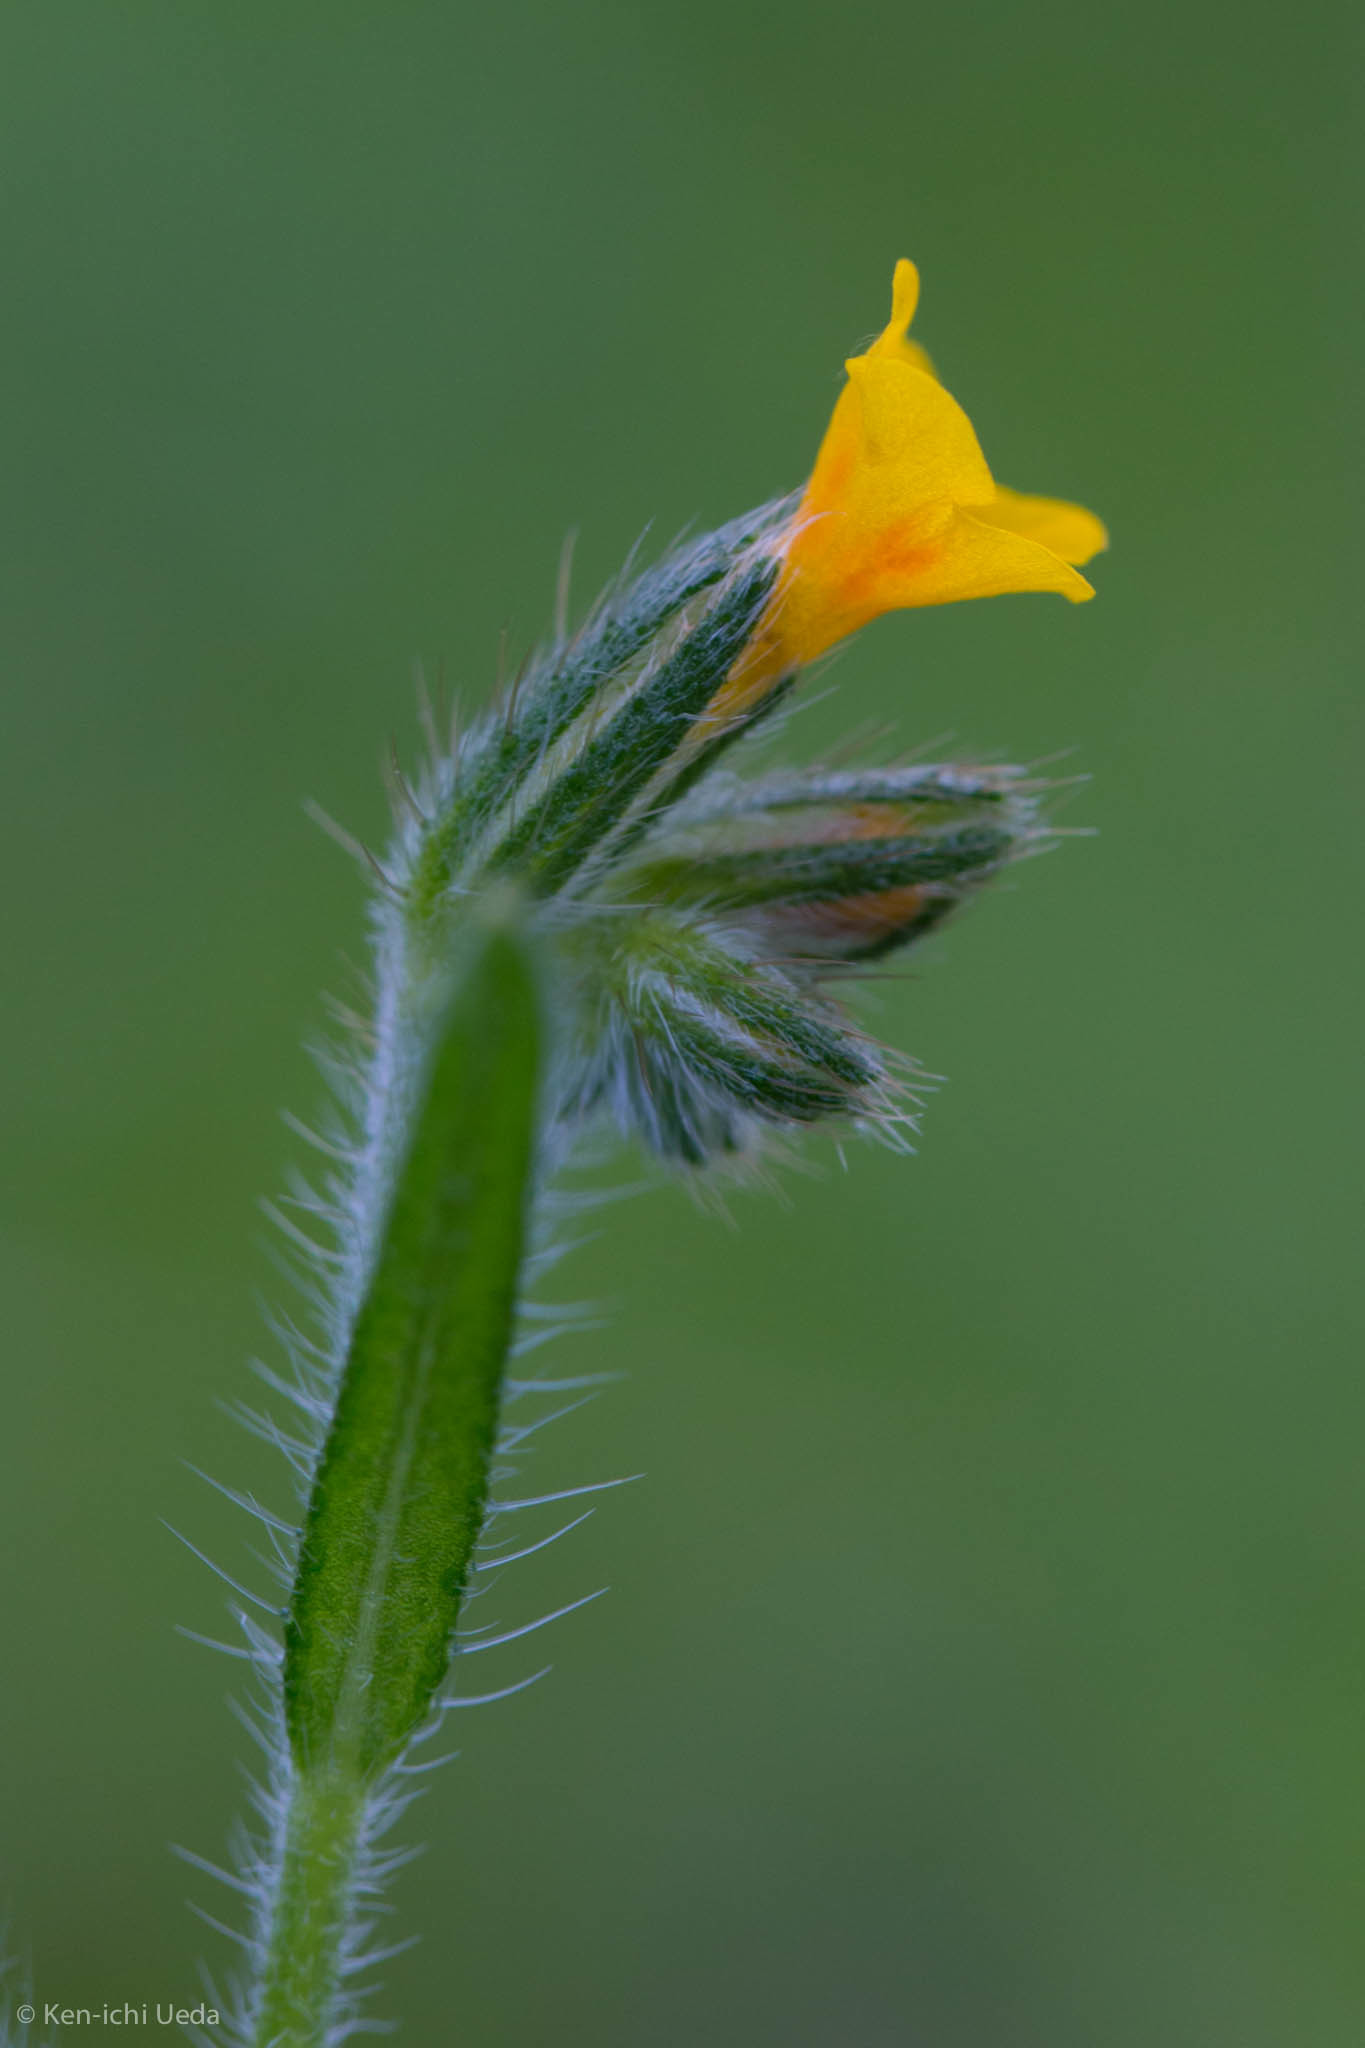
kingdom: Plantae
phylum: Tracheophyta
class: Magnoliopsida
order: Boraginales
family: Boraginaceae
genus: Amsinckia
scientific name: Amsinckia menziesii
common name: Menzies' fiddleneck
